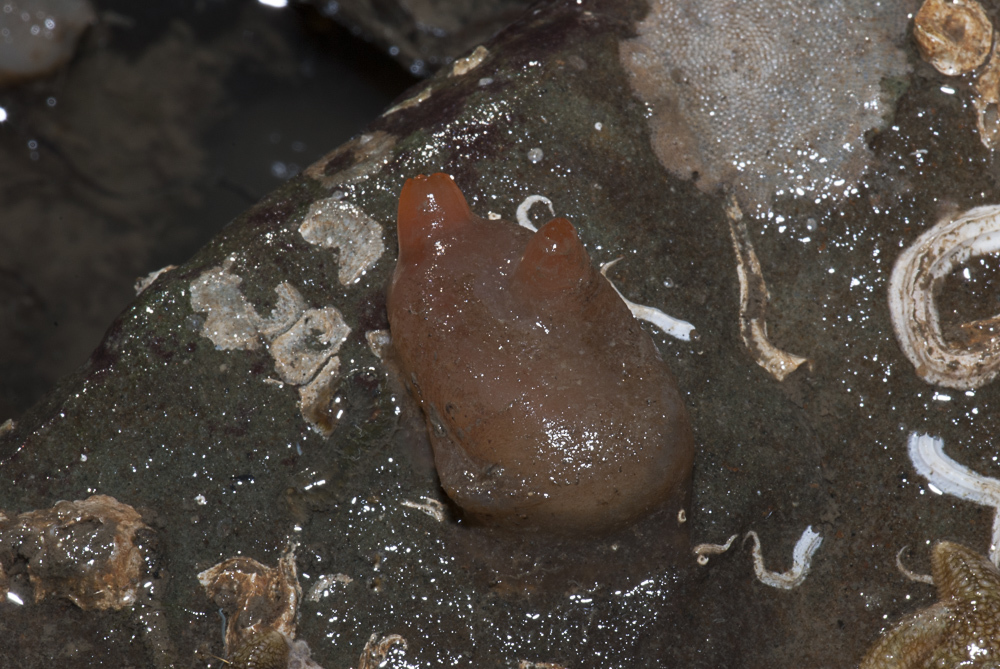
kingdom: Animalia
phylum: Chordata
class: Ascidiacea
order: Phlebobranchia
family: Corellidae
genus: Corella
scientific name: Corella eumyota
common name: Orange-tipped sea squirt
